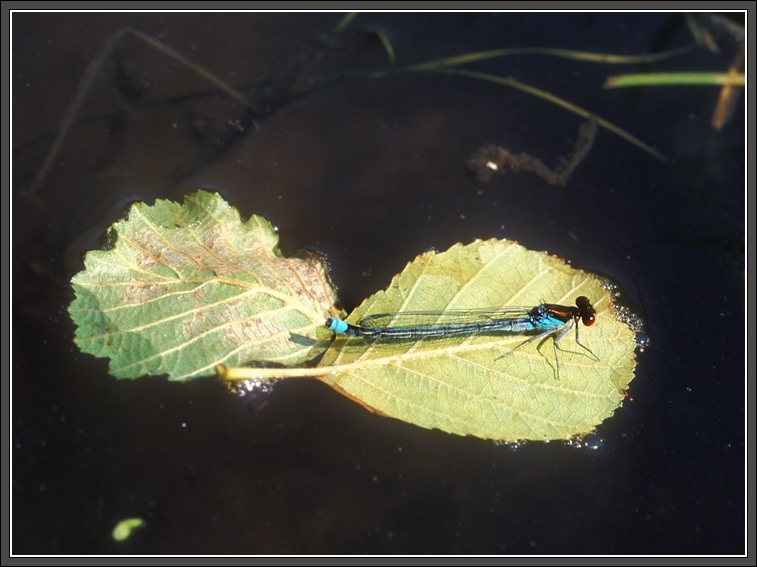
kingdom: Animalia
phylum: Arthropoda
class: Insecta
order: Odonata
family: Coenagrionidae
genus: Erythromma
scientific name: Erythromma najas
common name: Red-eyed damselfly
